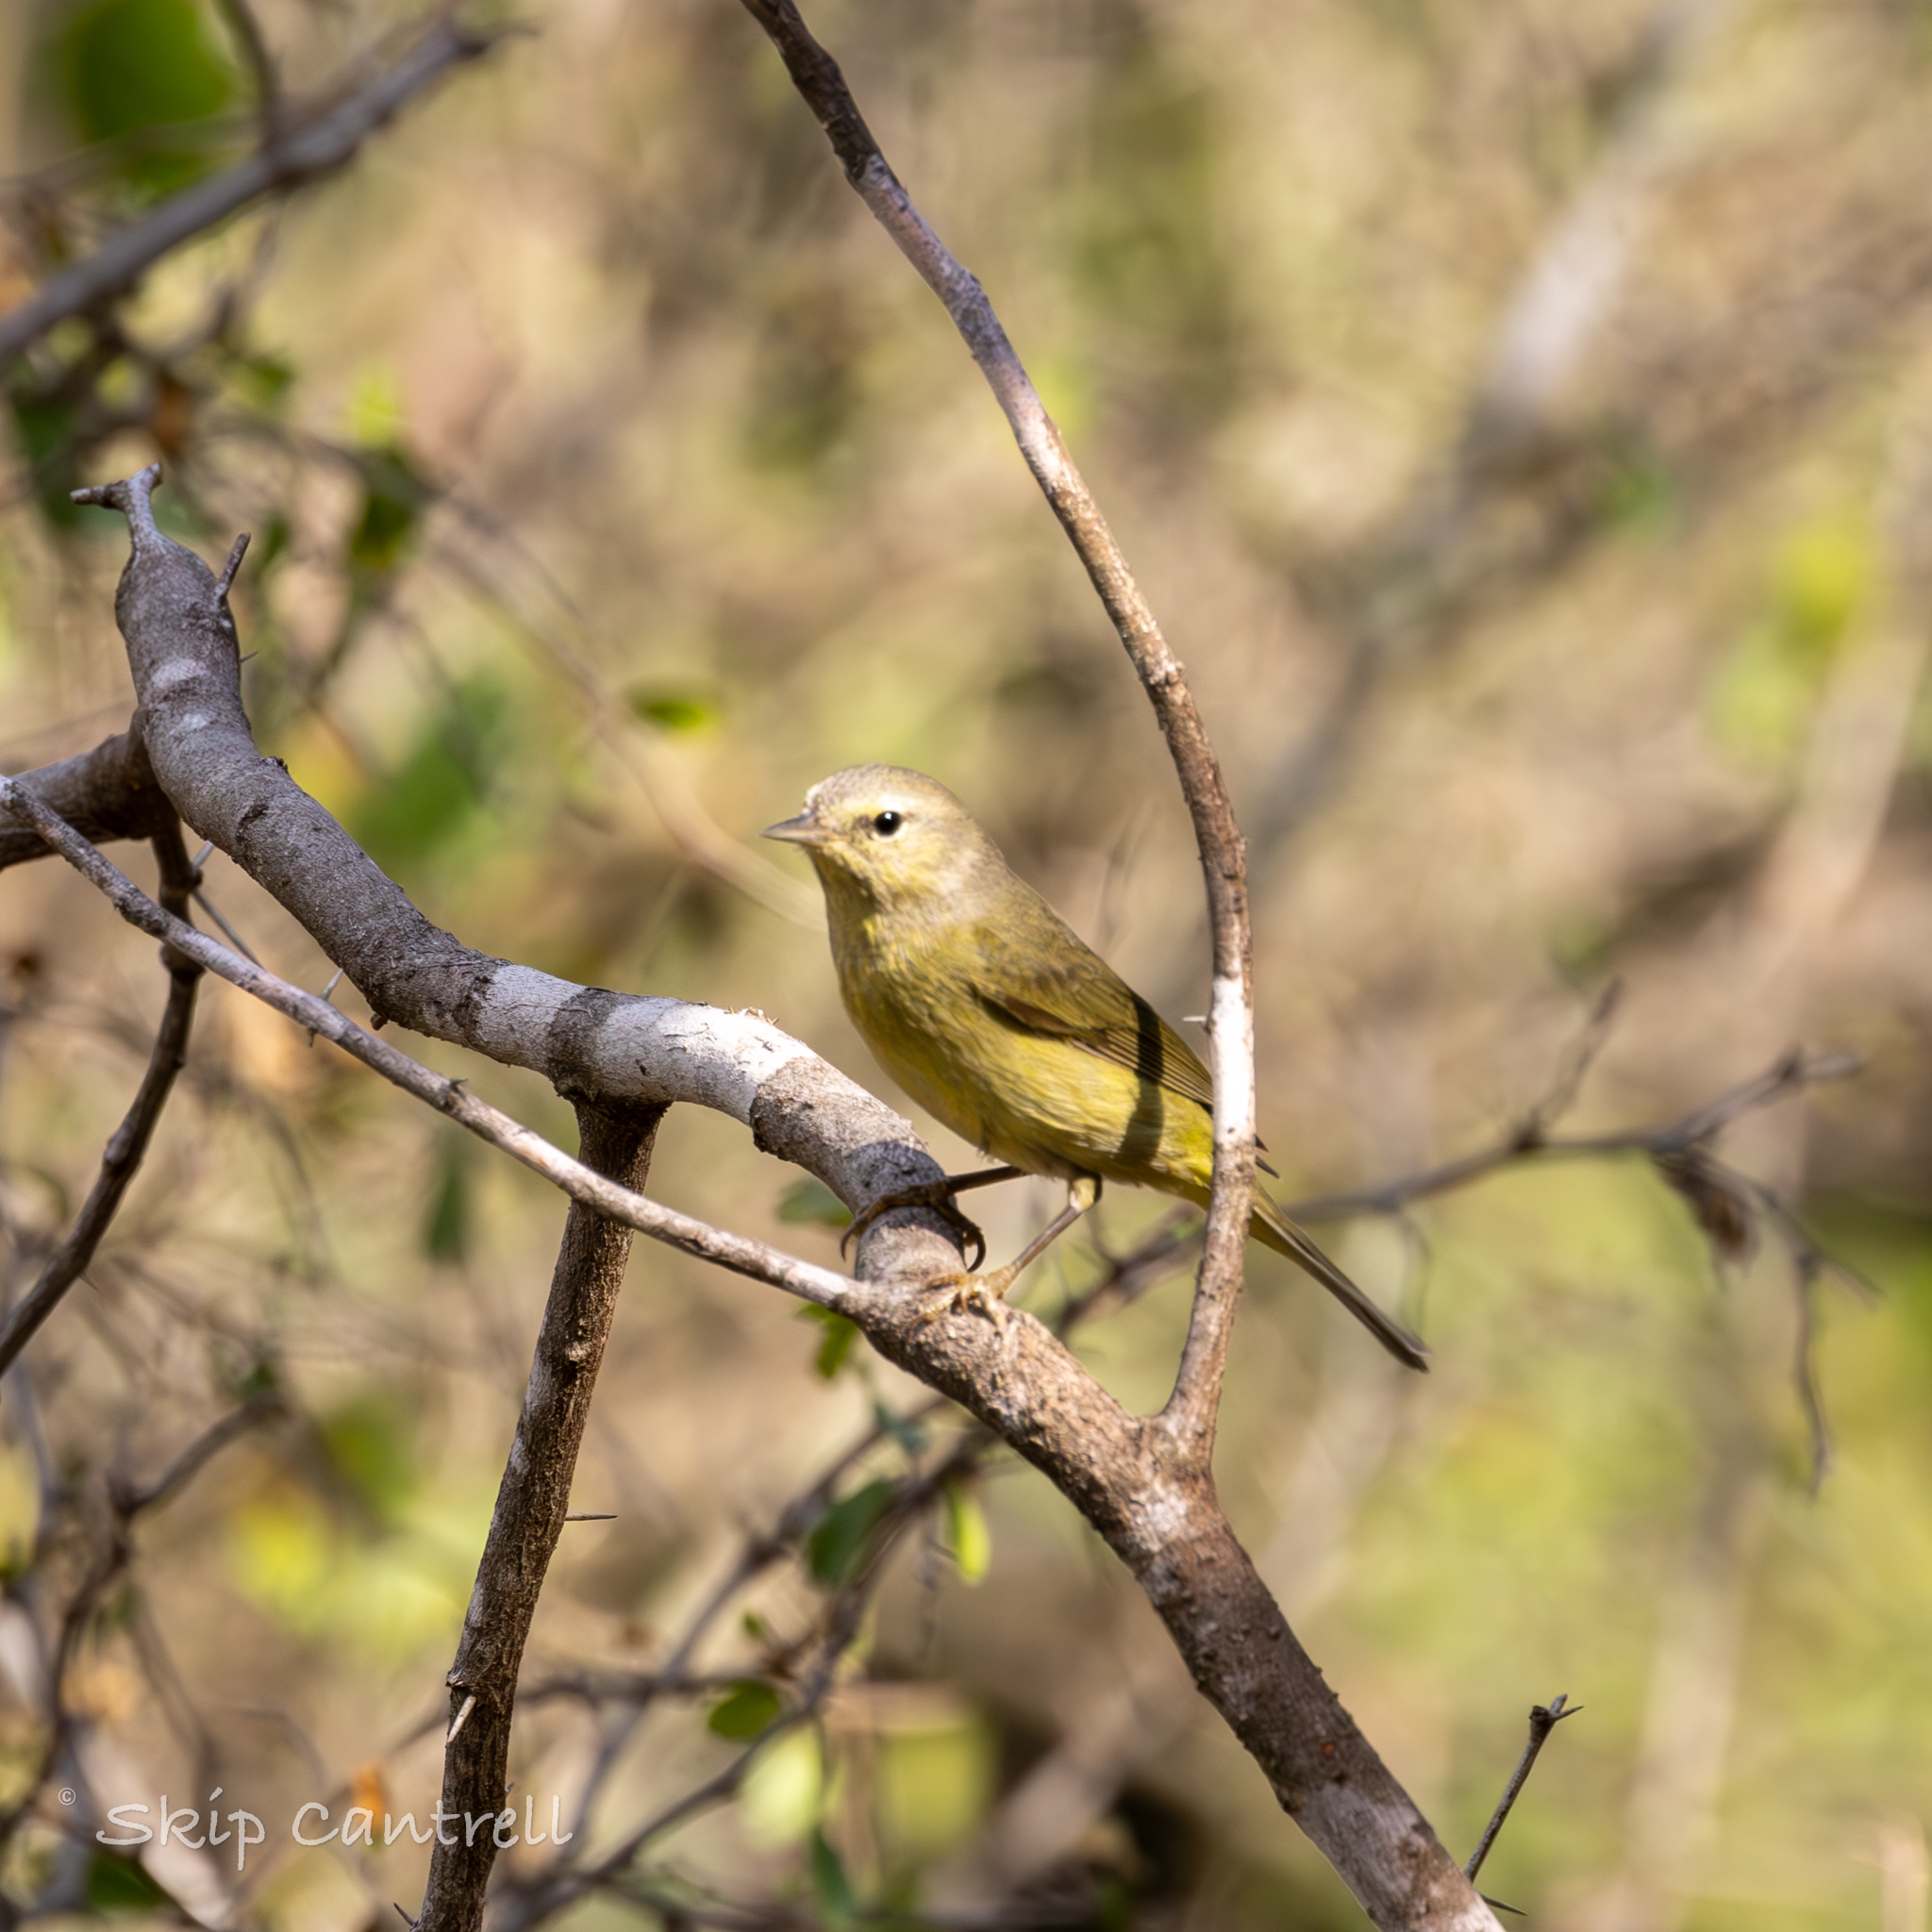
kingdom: Animalia
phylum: Chordata
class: Aves
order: Passeriformes
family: Parulidae
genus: Leiothlypis
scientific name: Leiothlypis celata
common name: Orange-crowned warbler
